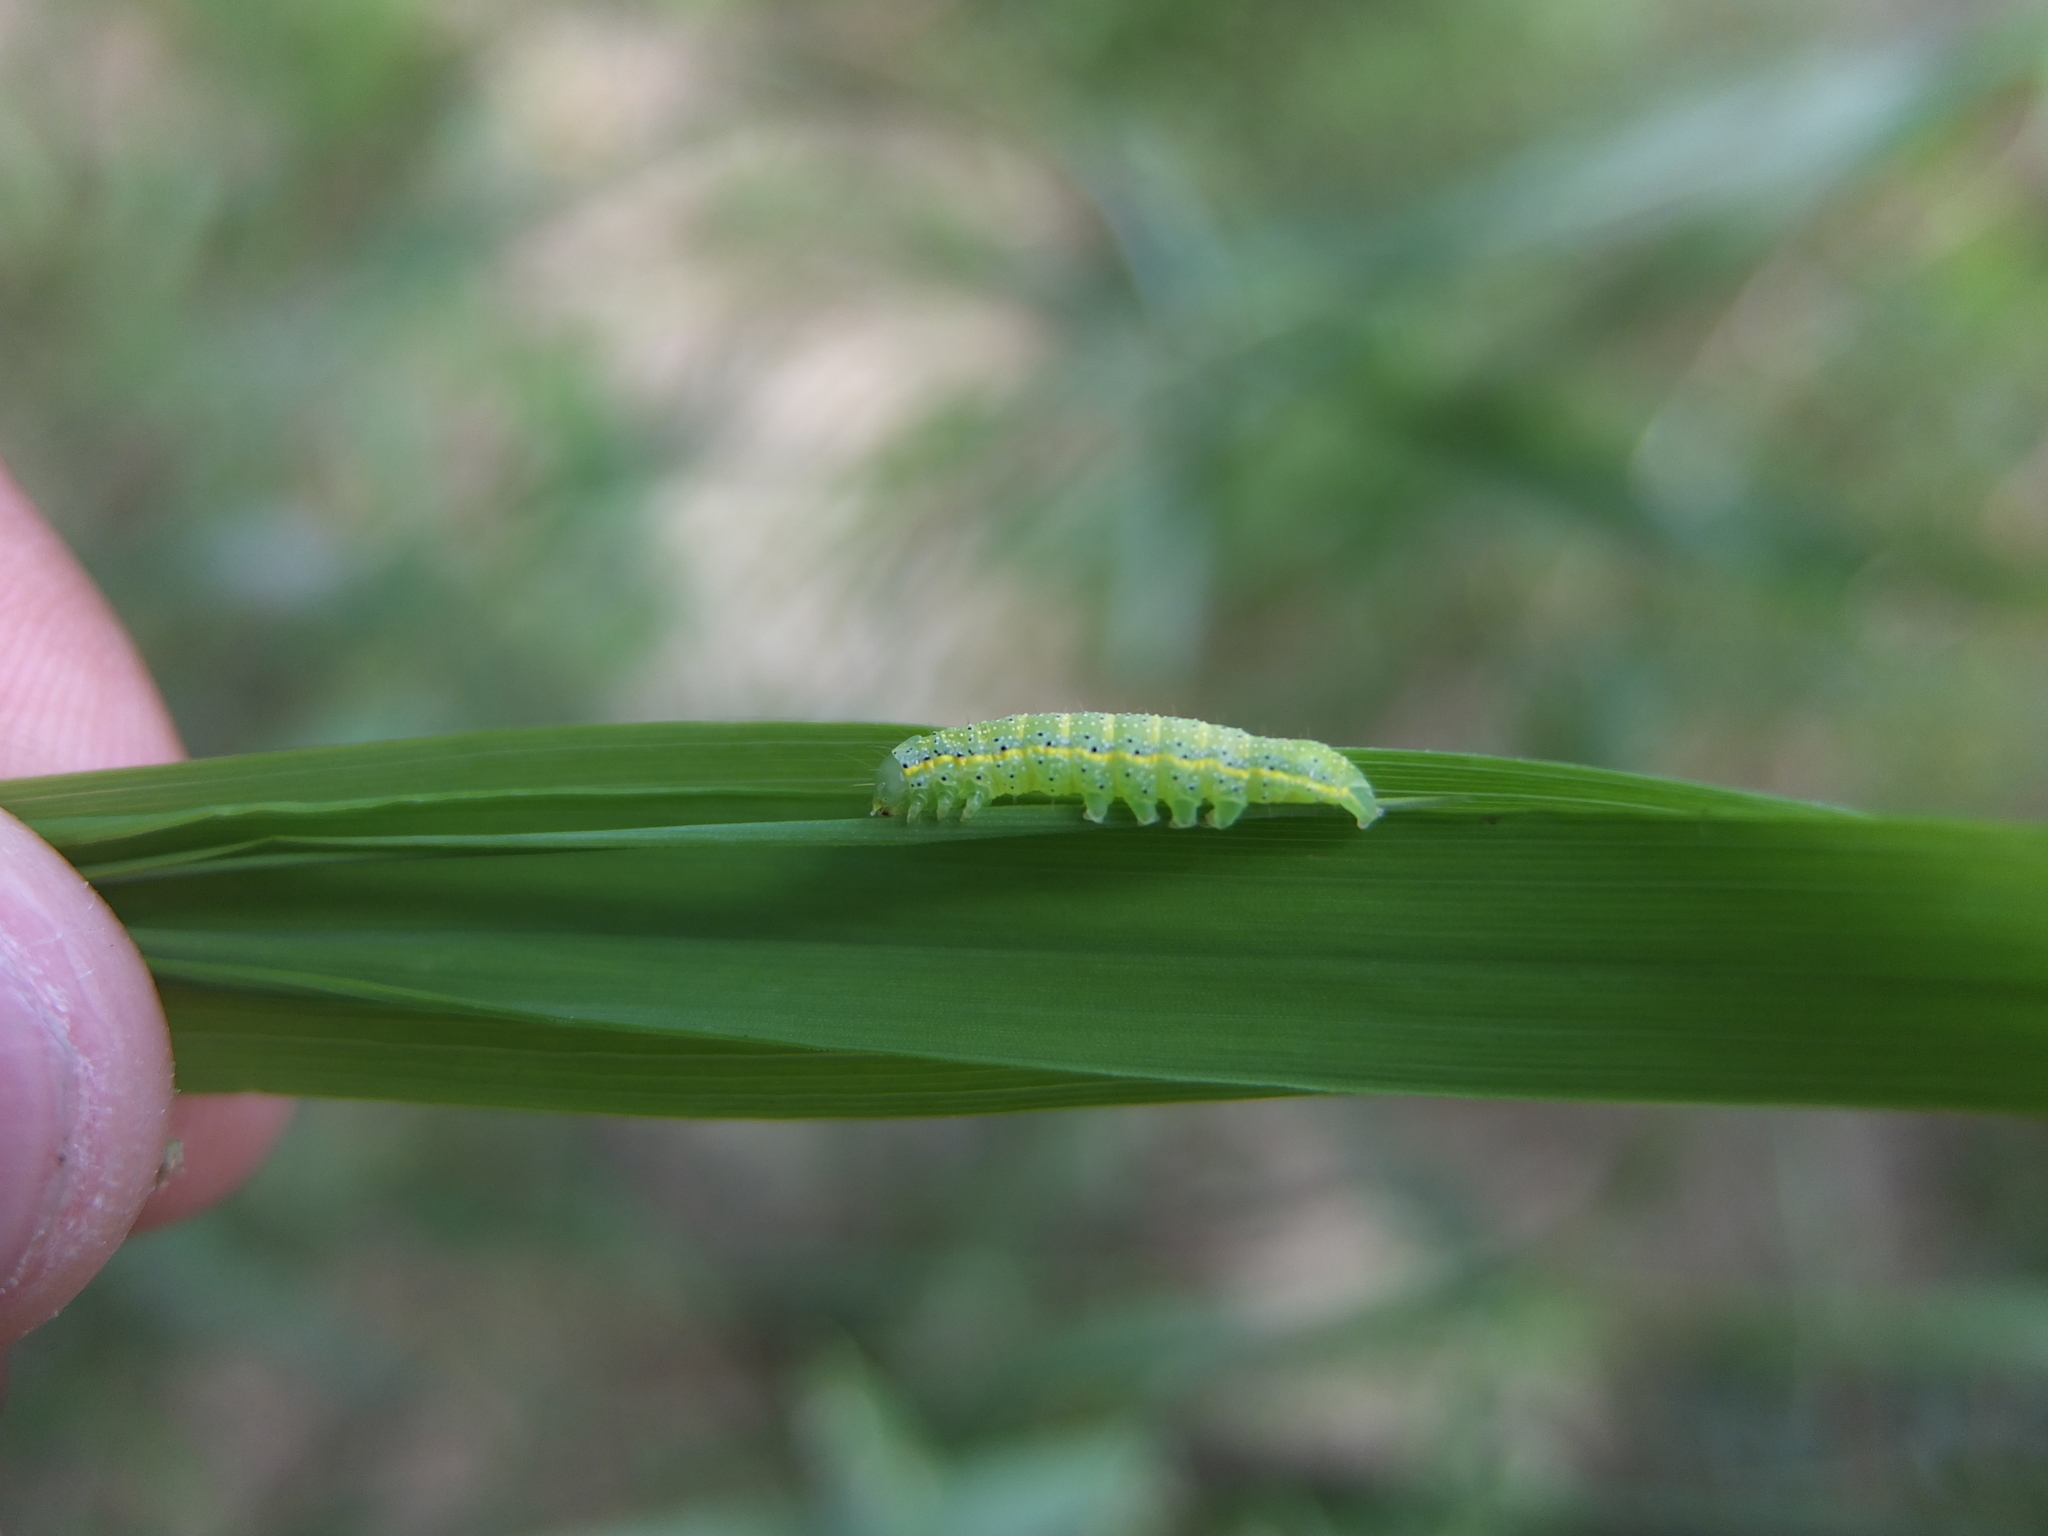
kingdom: Animalia
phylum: Arthropoda
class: Insecta
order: Lepidoptera
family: Noctuidae
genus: Lacanobia
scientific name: Lacanobia oleracea
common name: Bright-line brown-eye
